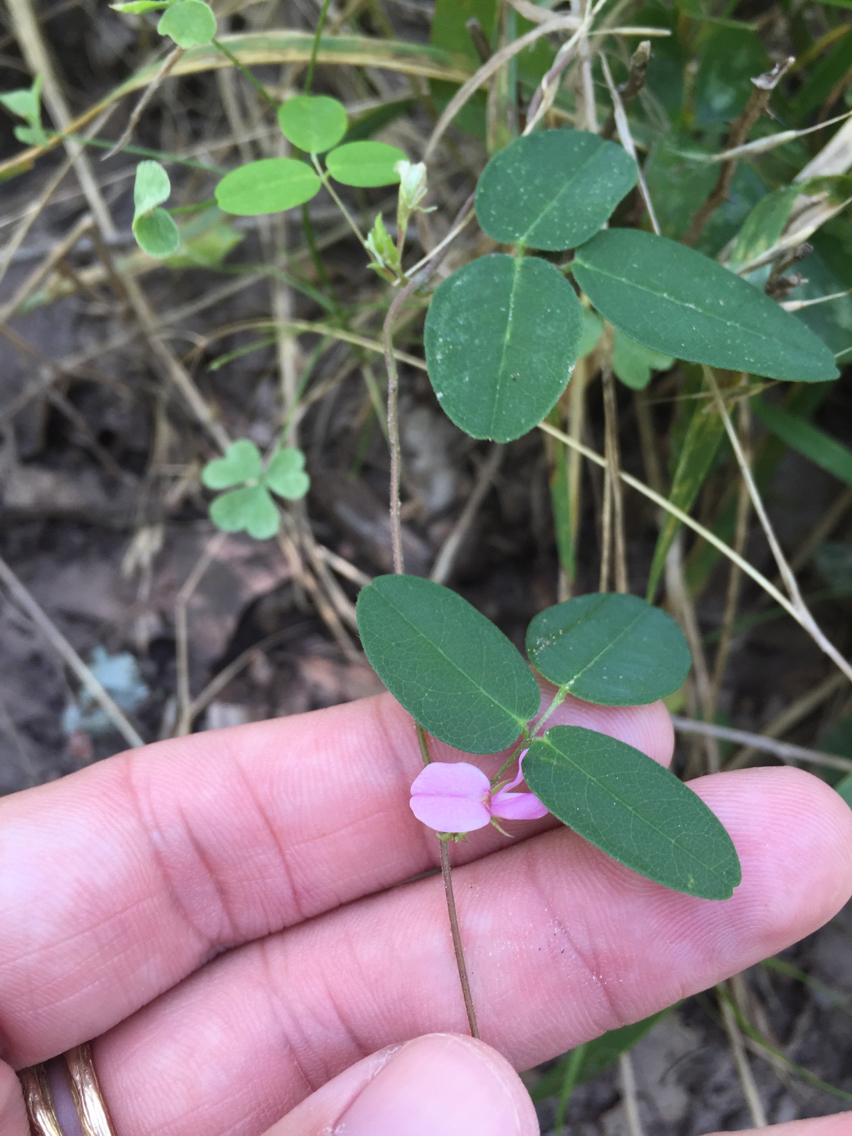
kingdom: Plantae
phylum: Tracheophyta
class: Magnoliopsida
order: Fabales
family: Fabaceae
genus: Galactia
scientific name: Galactia volubilis
